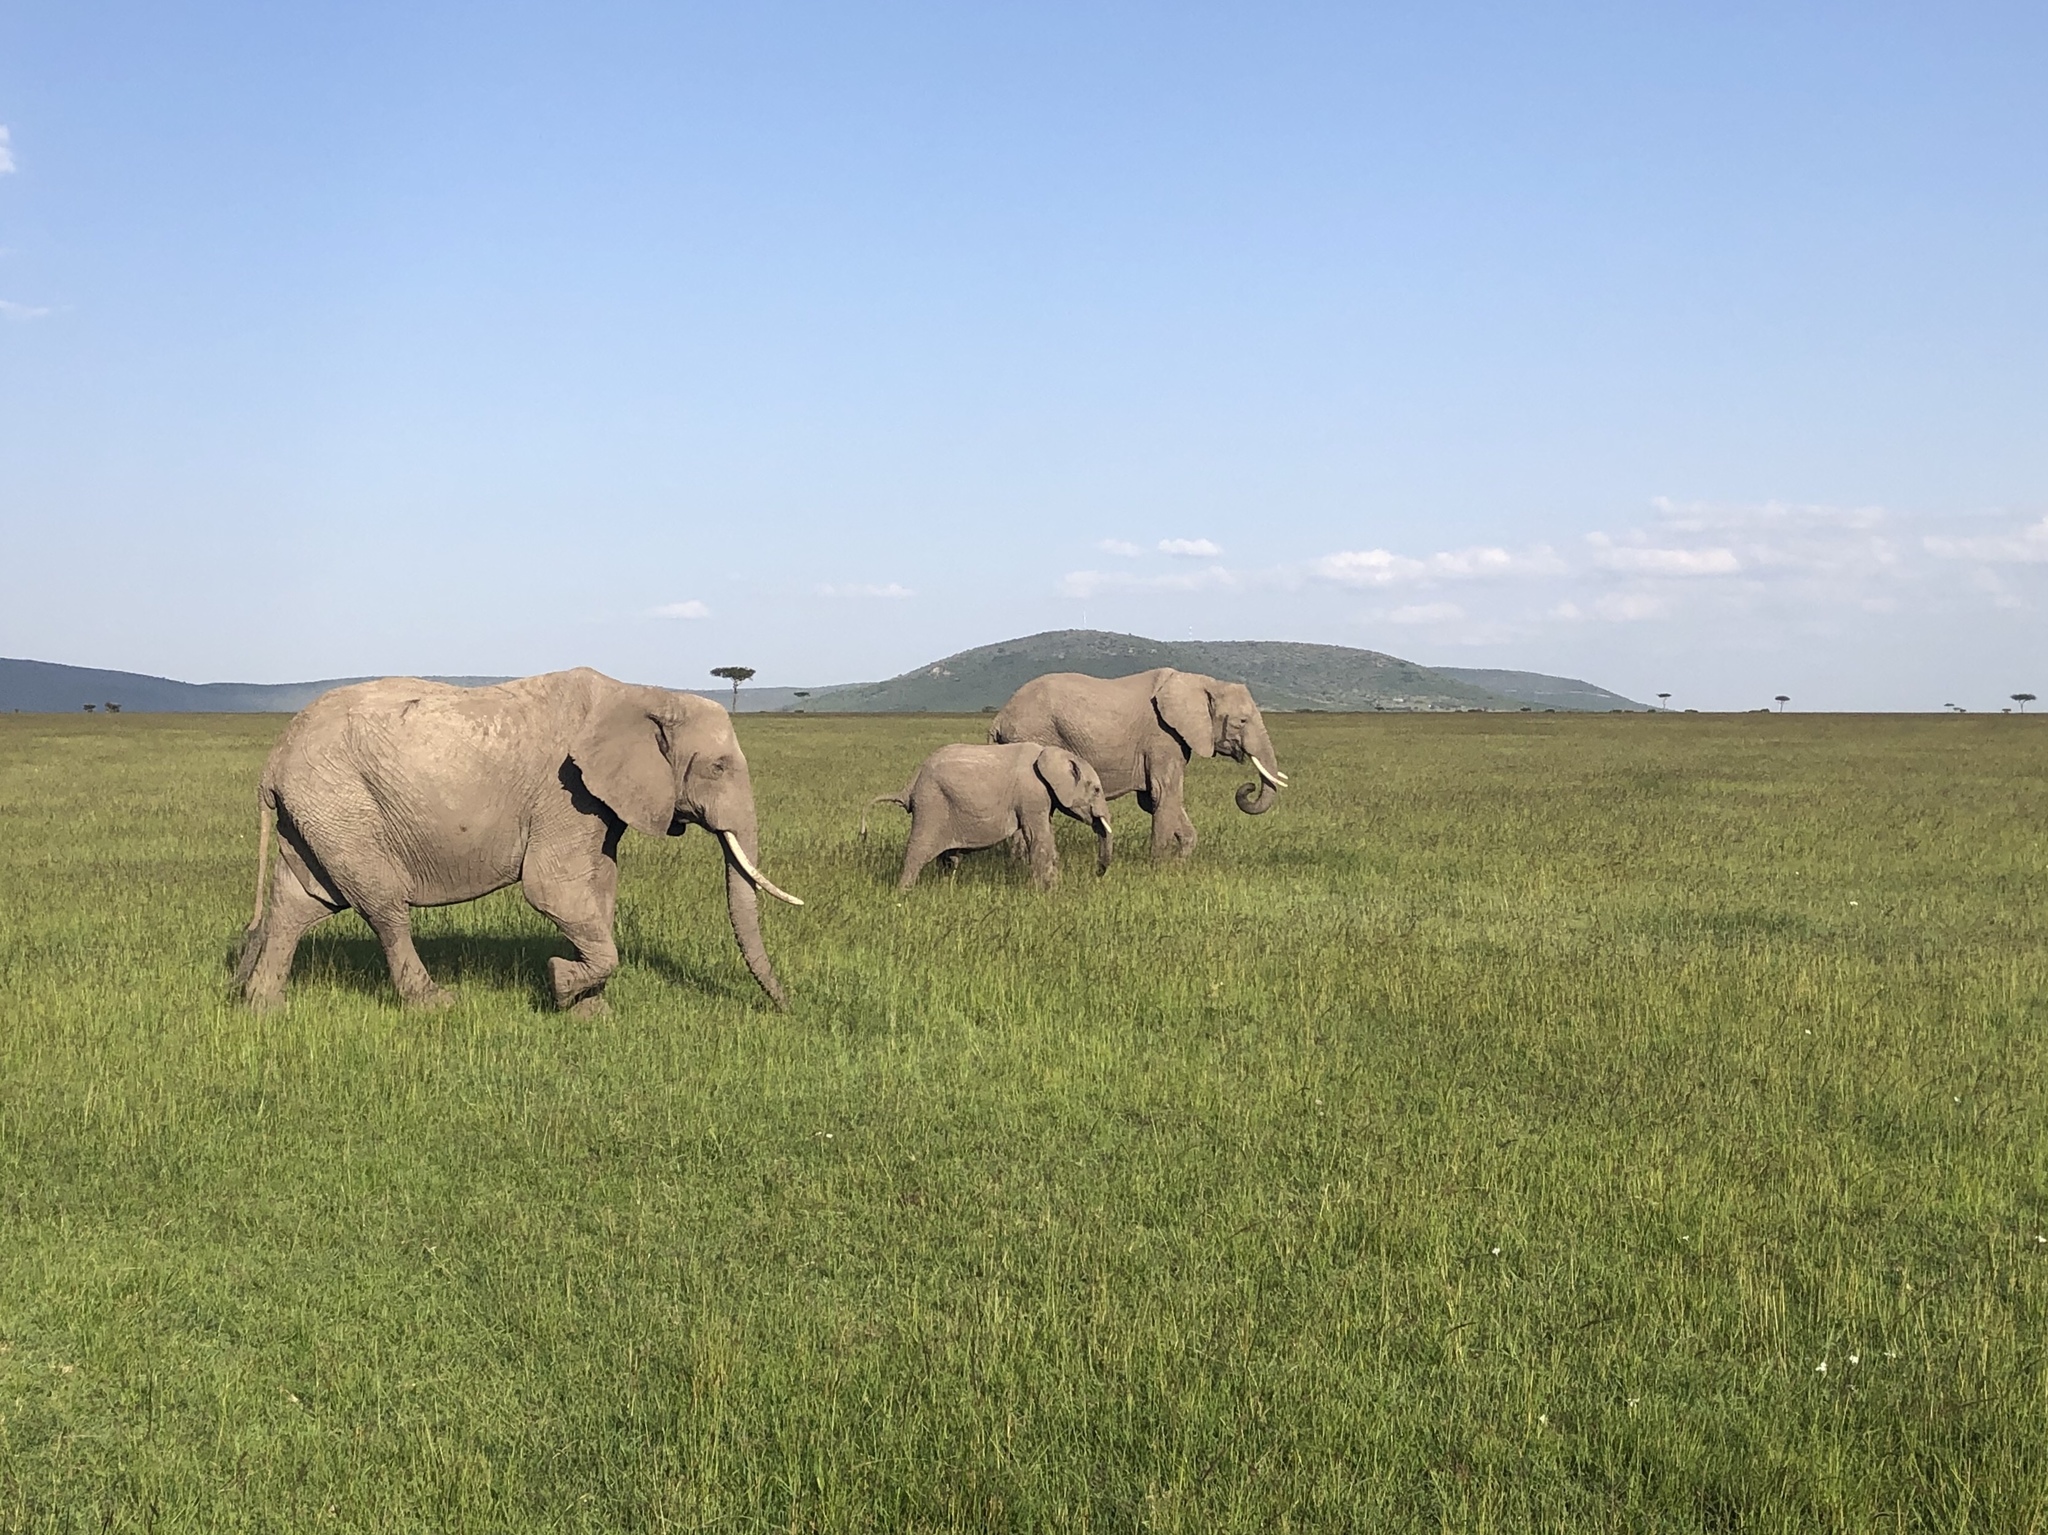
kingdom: Animalia
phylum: Chordata
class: Mammalia
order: Proboscidea
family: Elephantidae
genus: Loxodonta
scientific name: Loxodonta africana
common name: African elephant
